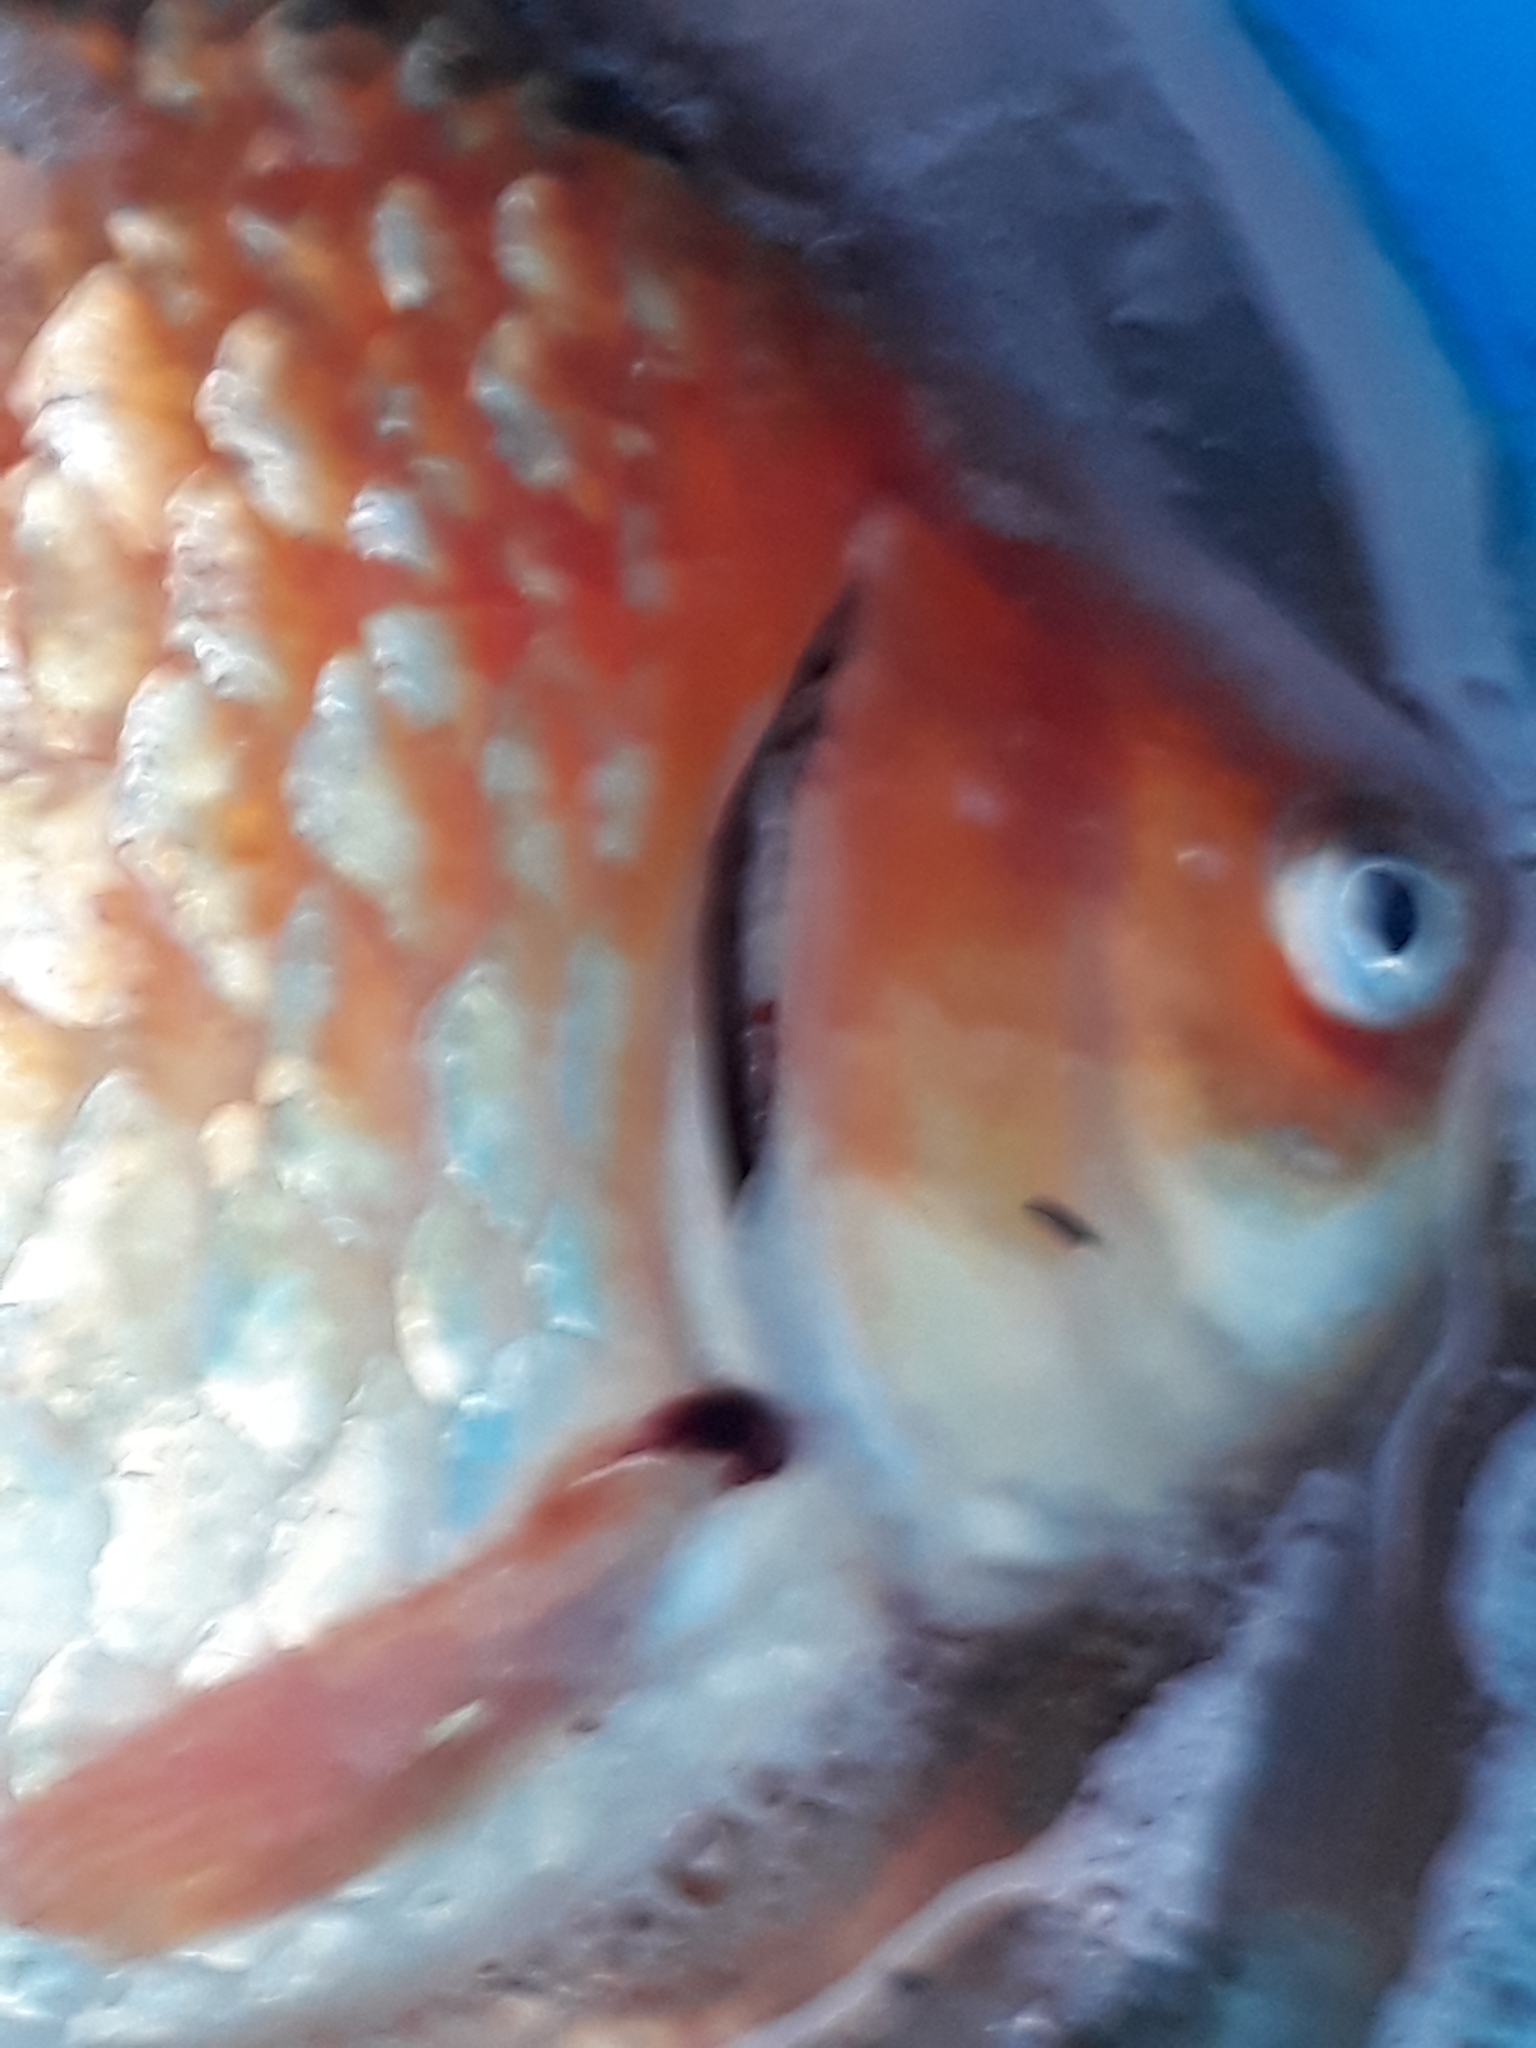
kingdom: Animalia
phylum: Chordata
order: Cypriniformes
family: Cyprinidae
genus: Carassius
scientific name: Carassius auratus
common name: Goldfish
